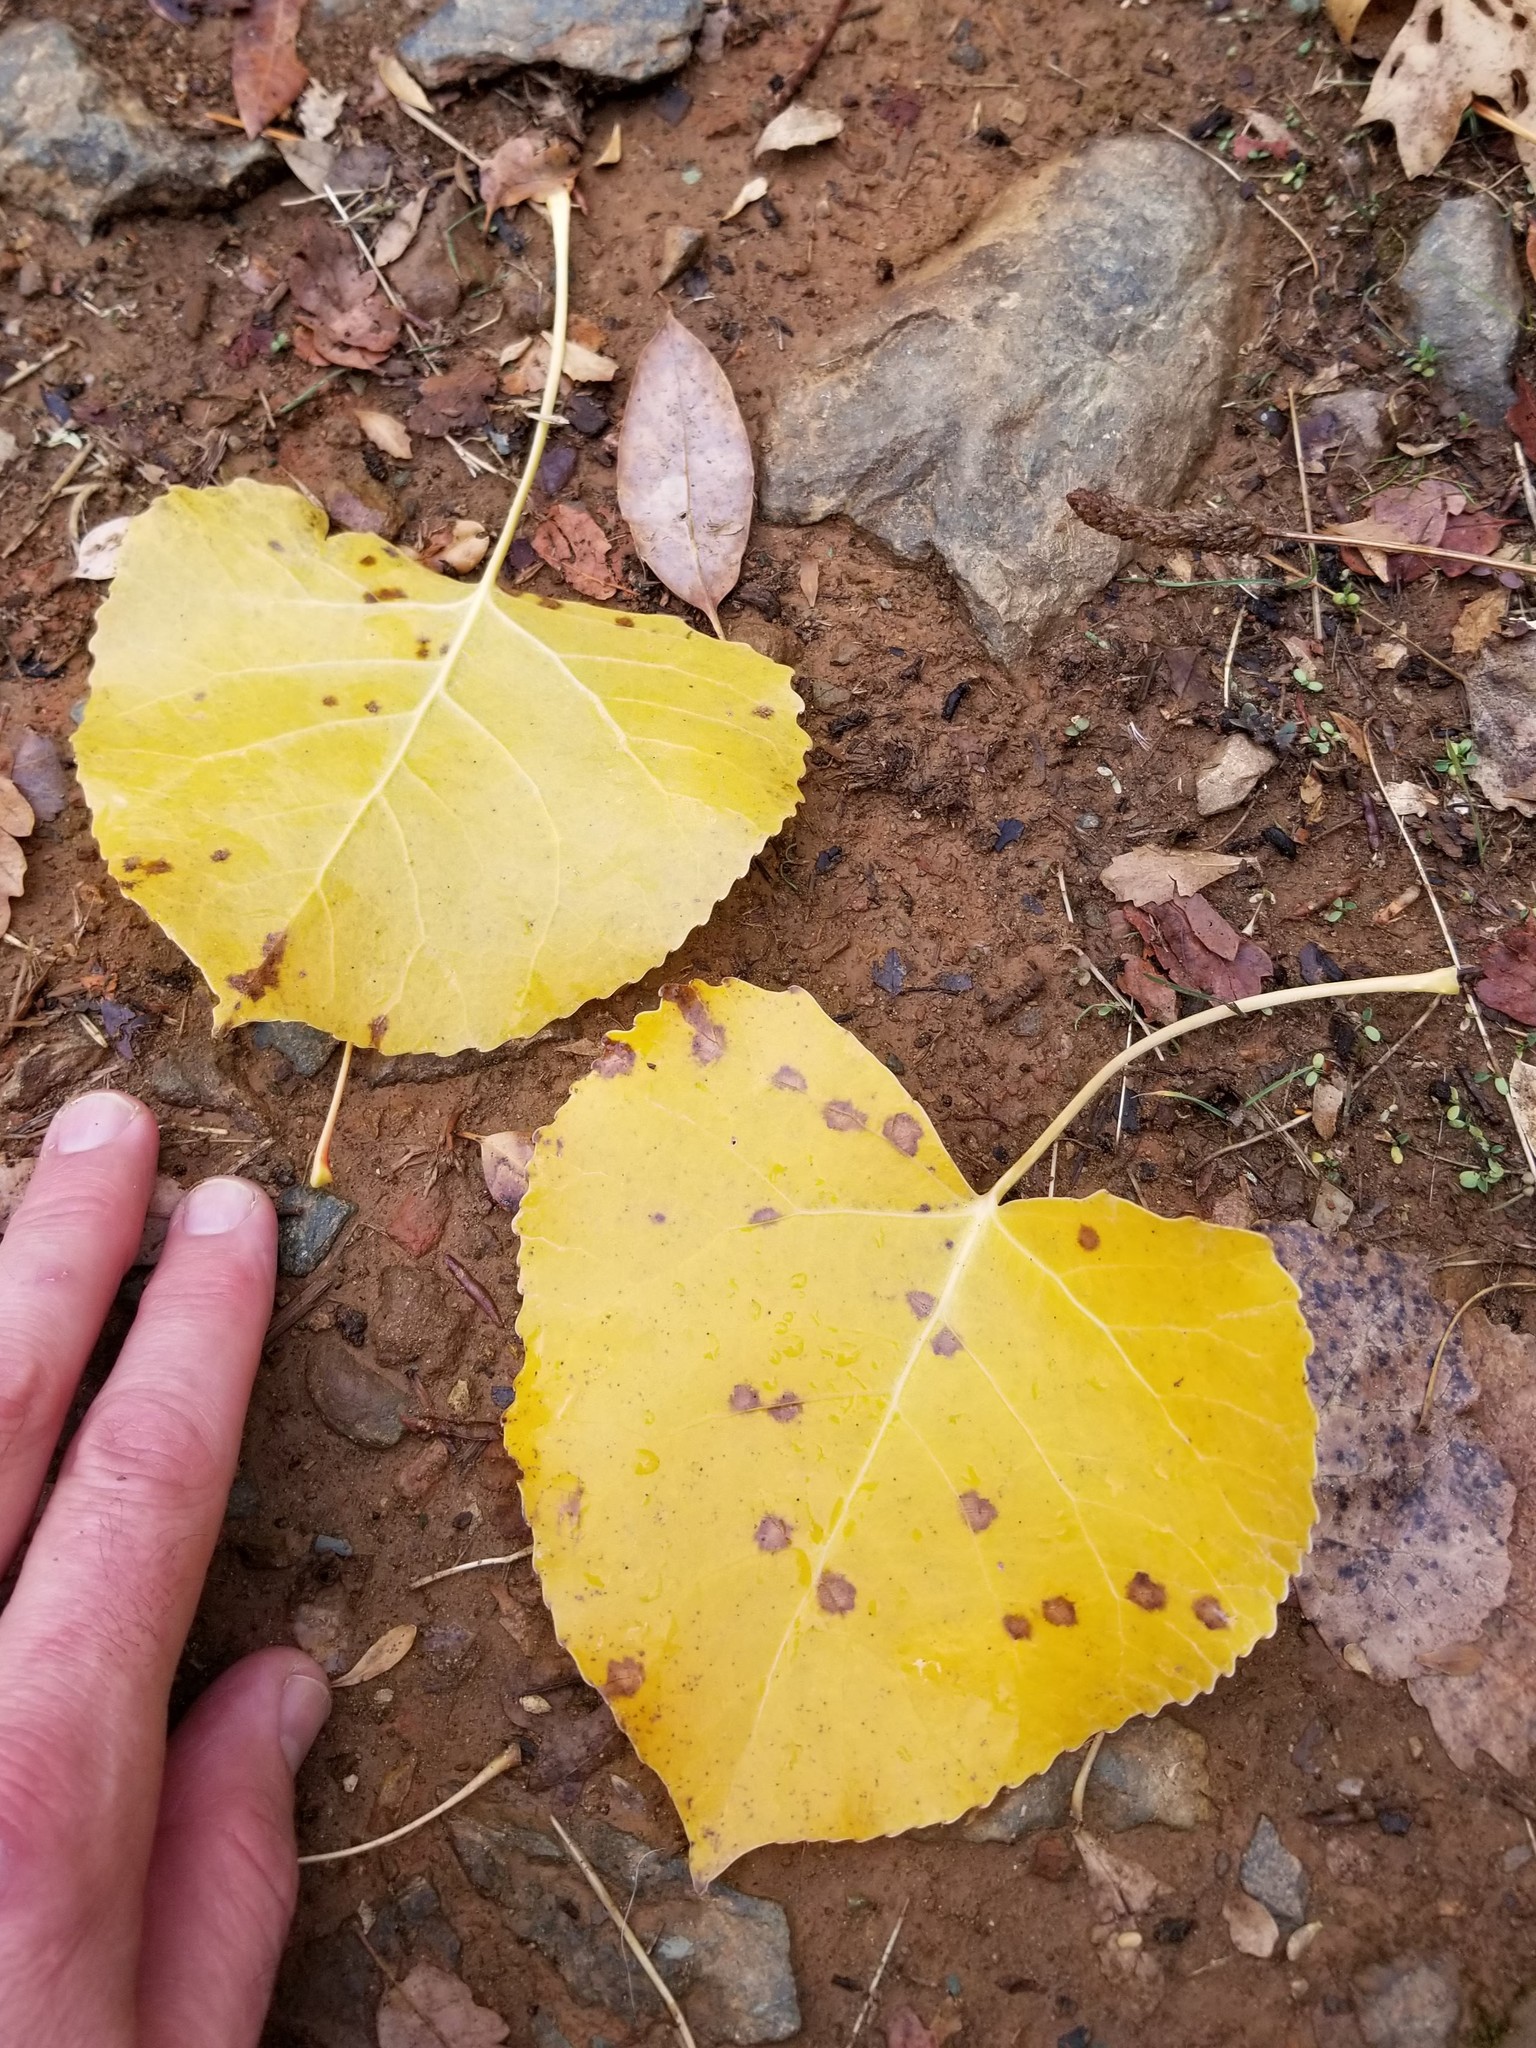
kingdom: Plantae
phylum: Tracheophyta
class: Magnoliopsida
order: Malpighiales
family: Salicaceae
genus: Populus
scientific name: Populus fremontii
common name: Fremont's cottonwood
